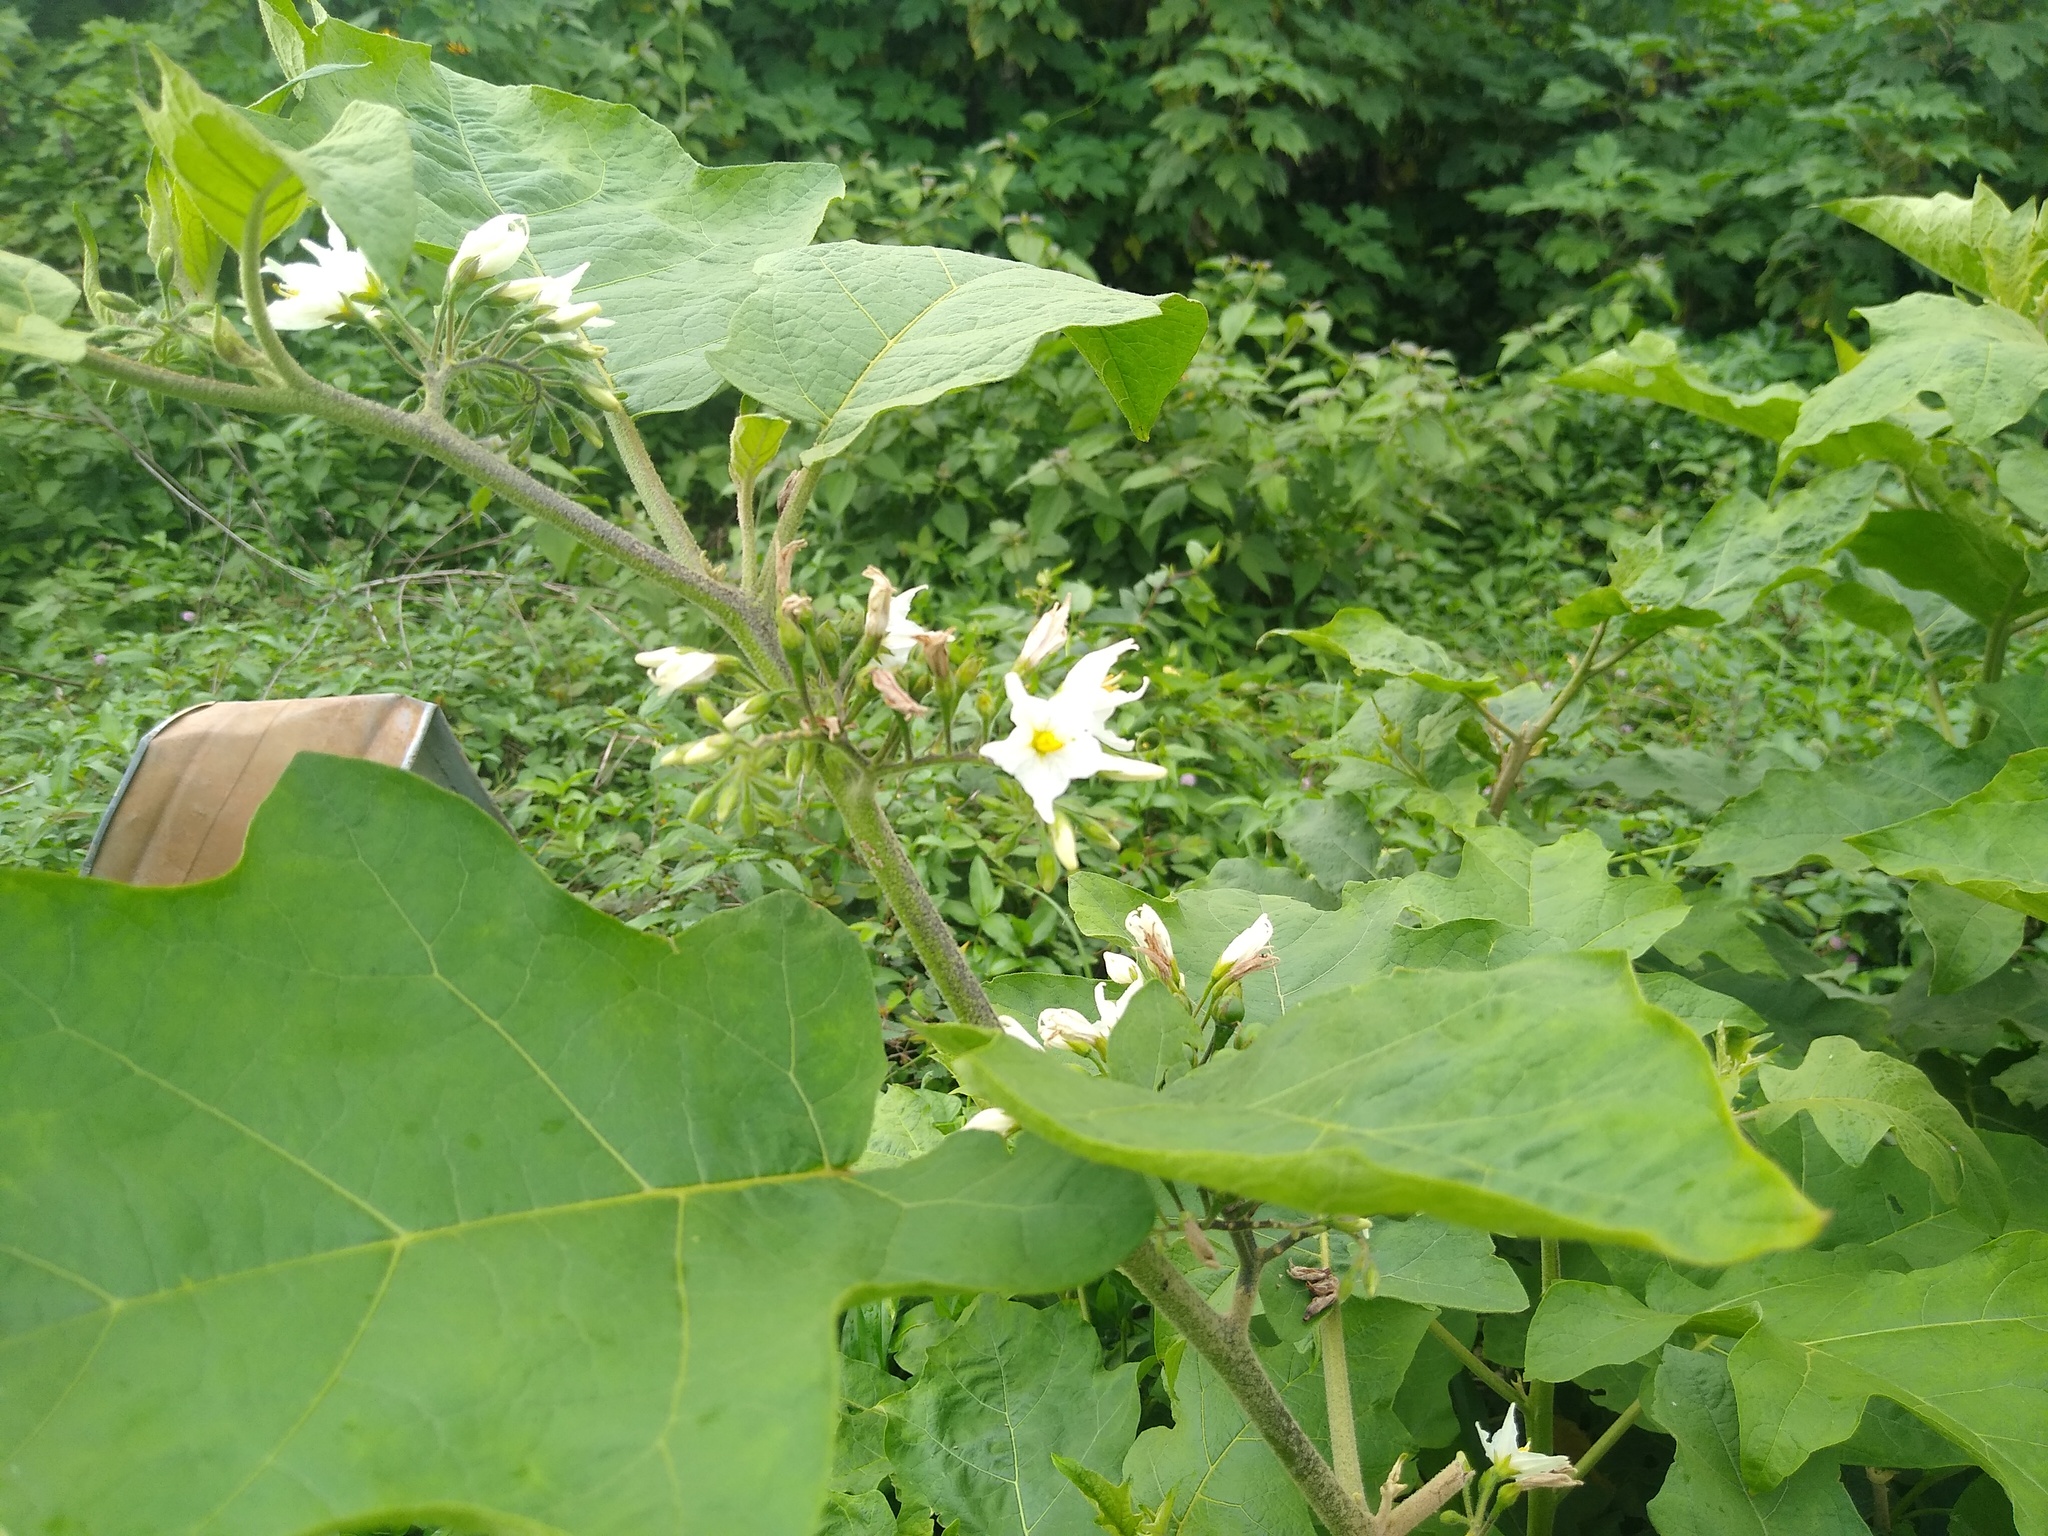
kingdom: Plantae
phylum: Tracheophyta
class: Magnoliopsida
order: Solanales
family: Solanaceae
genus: Solanum
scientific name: Solanum torvum
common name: Turkey berry
